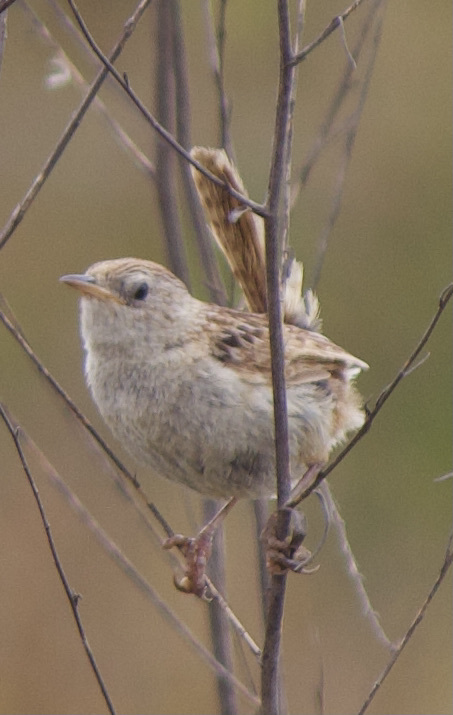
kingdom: Animalia
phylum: Chordata
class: Aves
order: Passeriformes
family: Troglodytidae
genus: Cistothorus
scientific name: Cistothorus platensis
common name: Sedge wren
